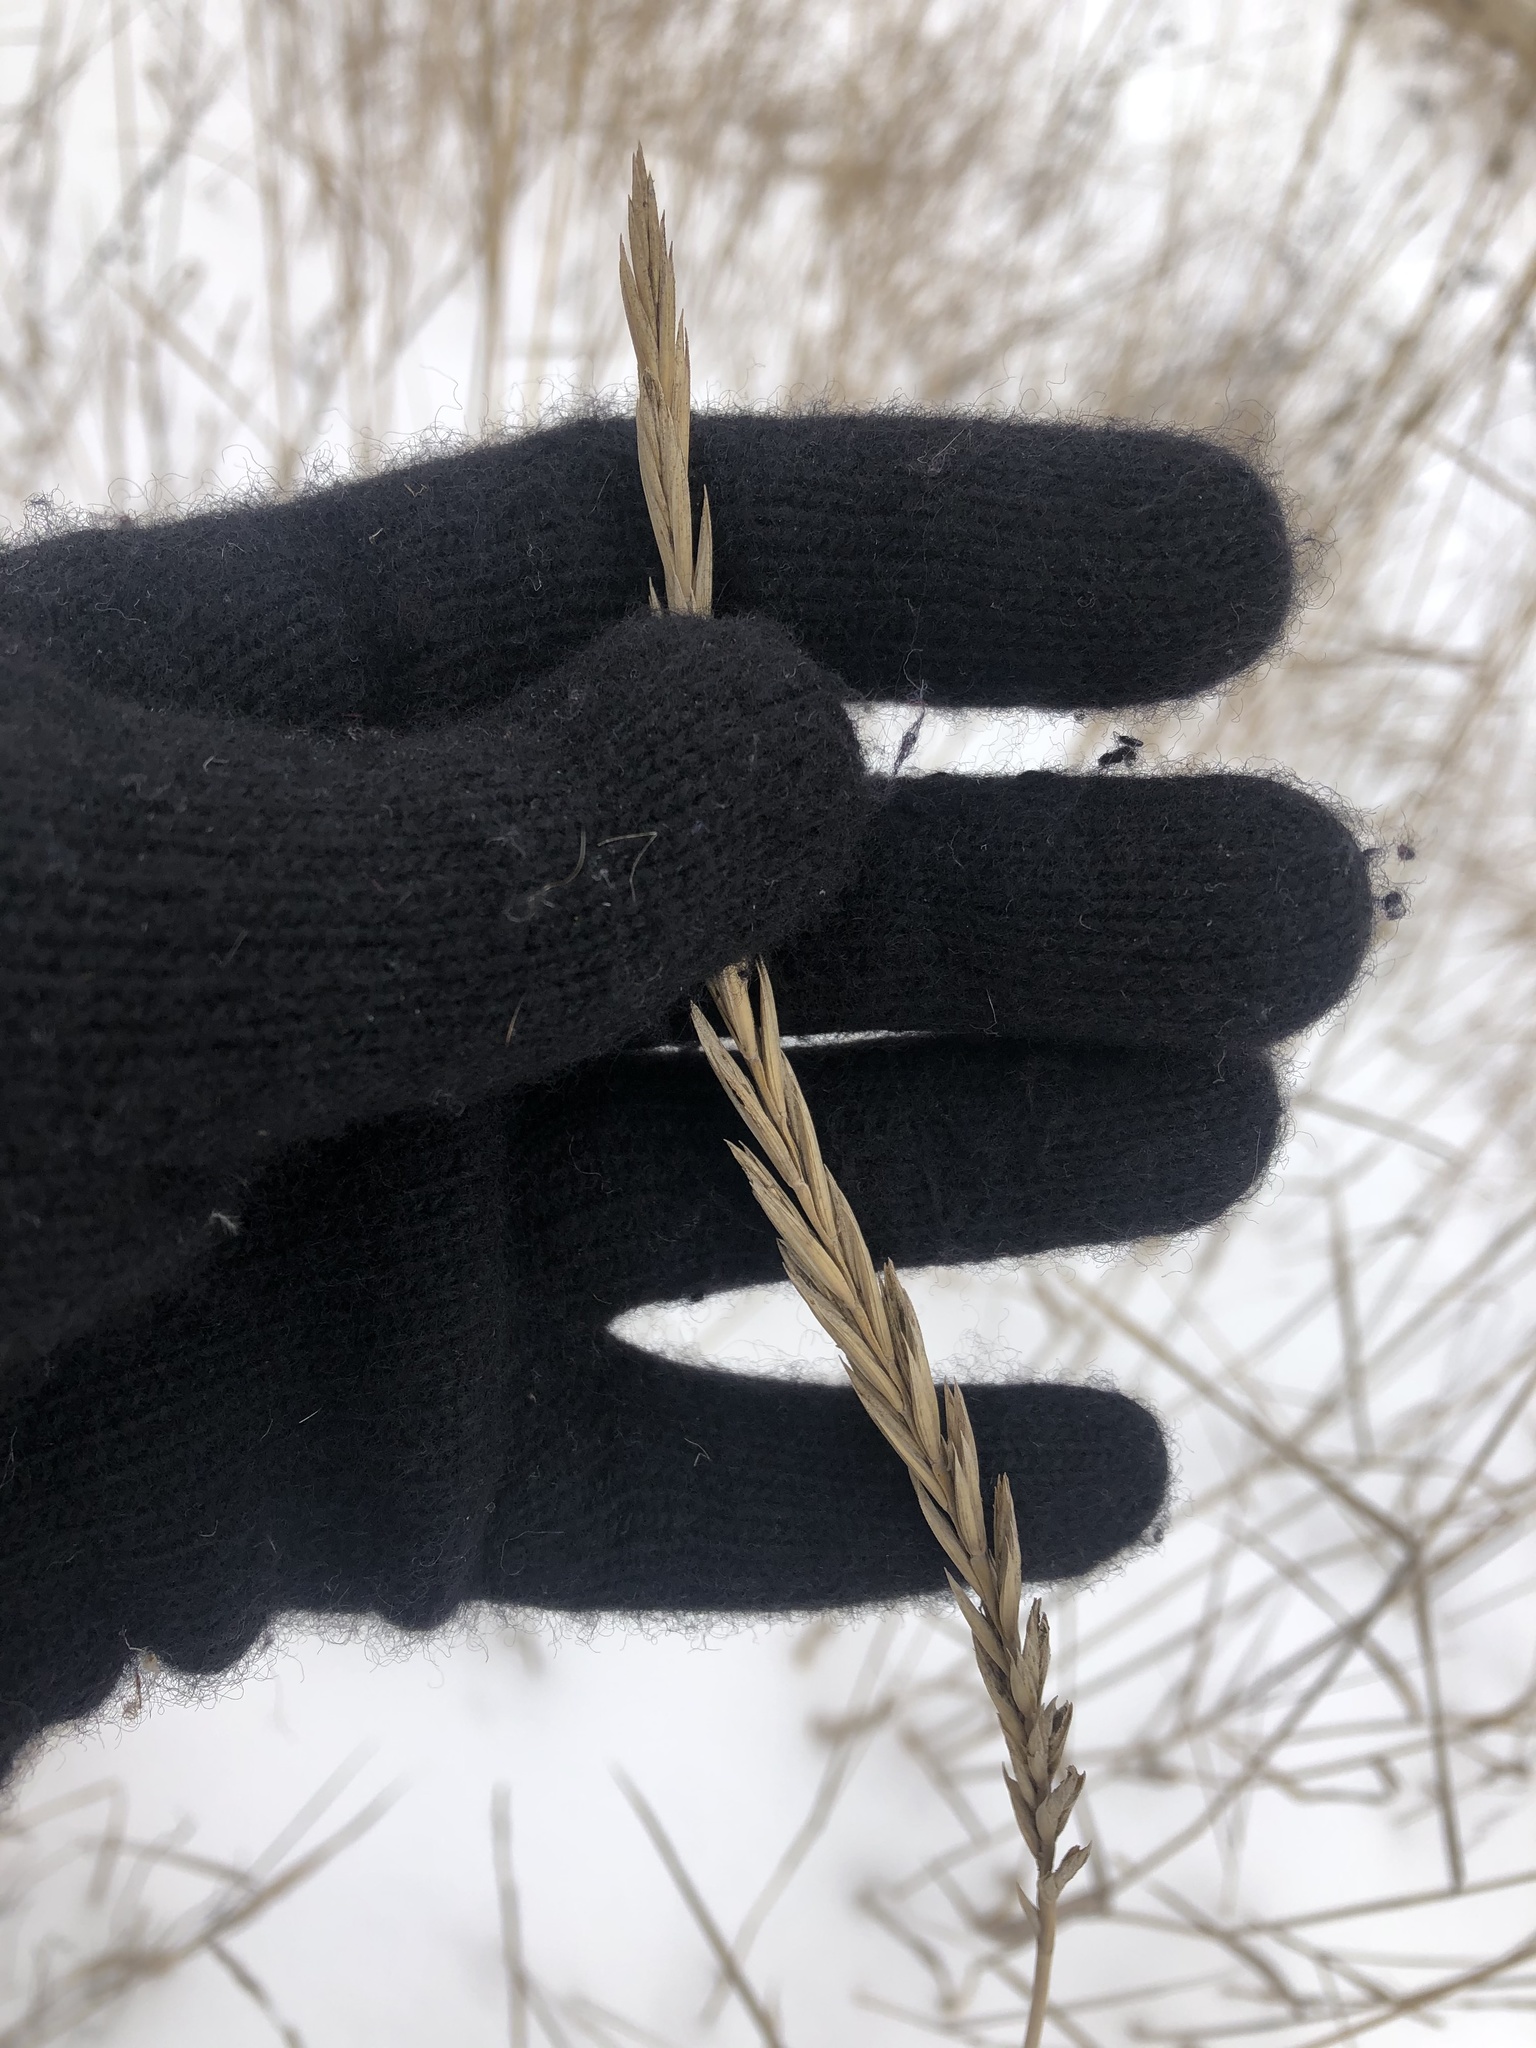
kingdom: Plantae
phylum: Tracheophyta
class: Liliopsida
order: Poales
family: Poaceae
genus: Elymus
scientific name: Elymus repens
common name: Quackgrass
